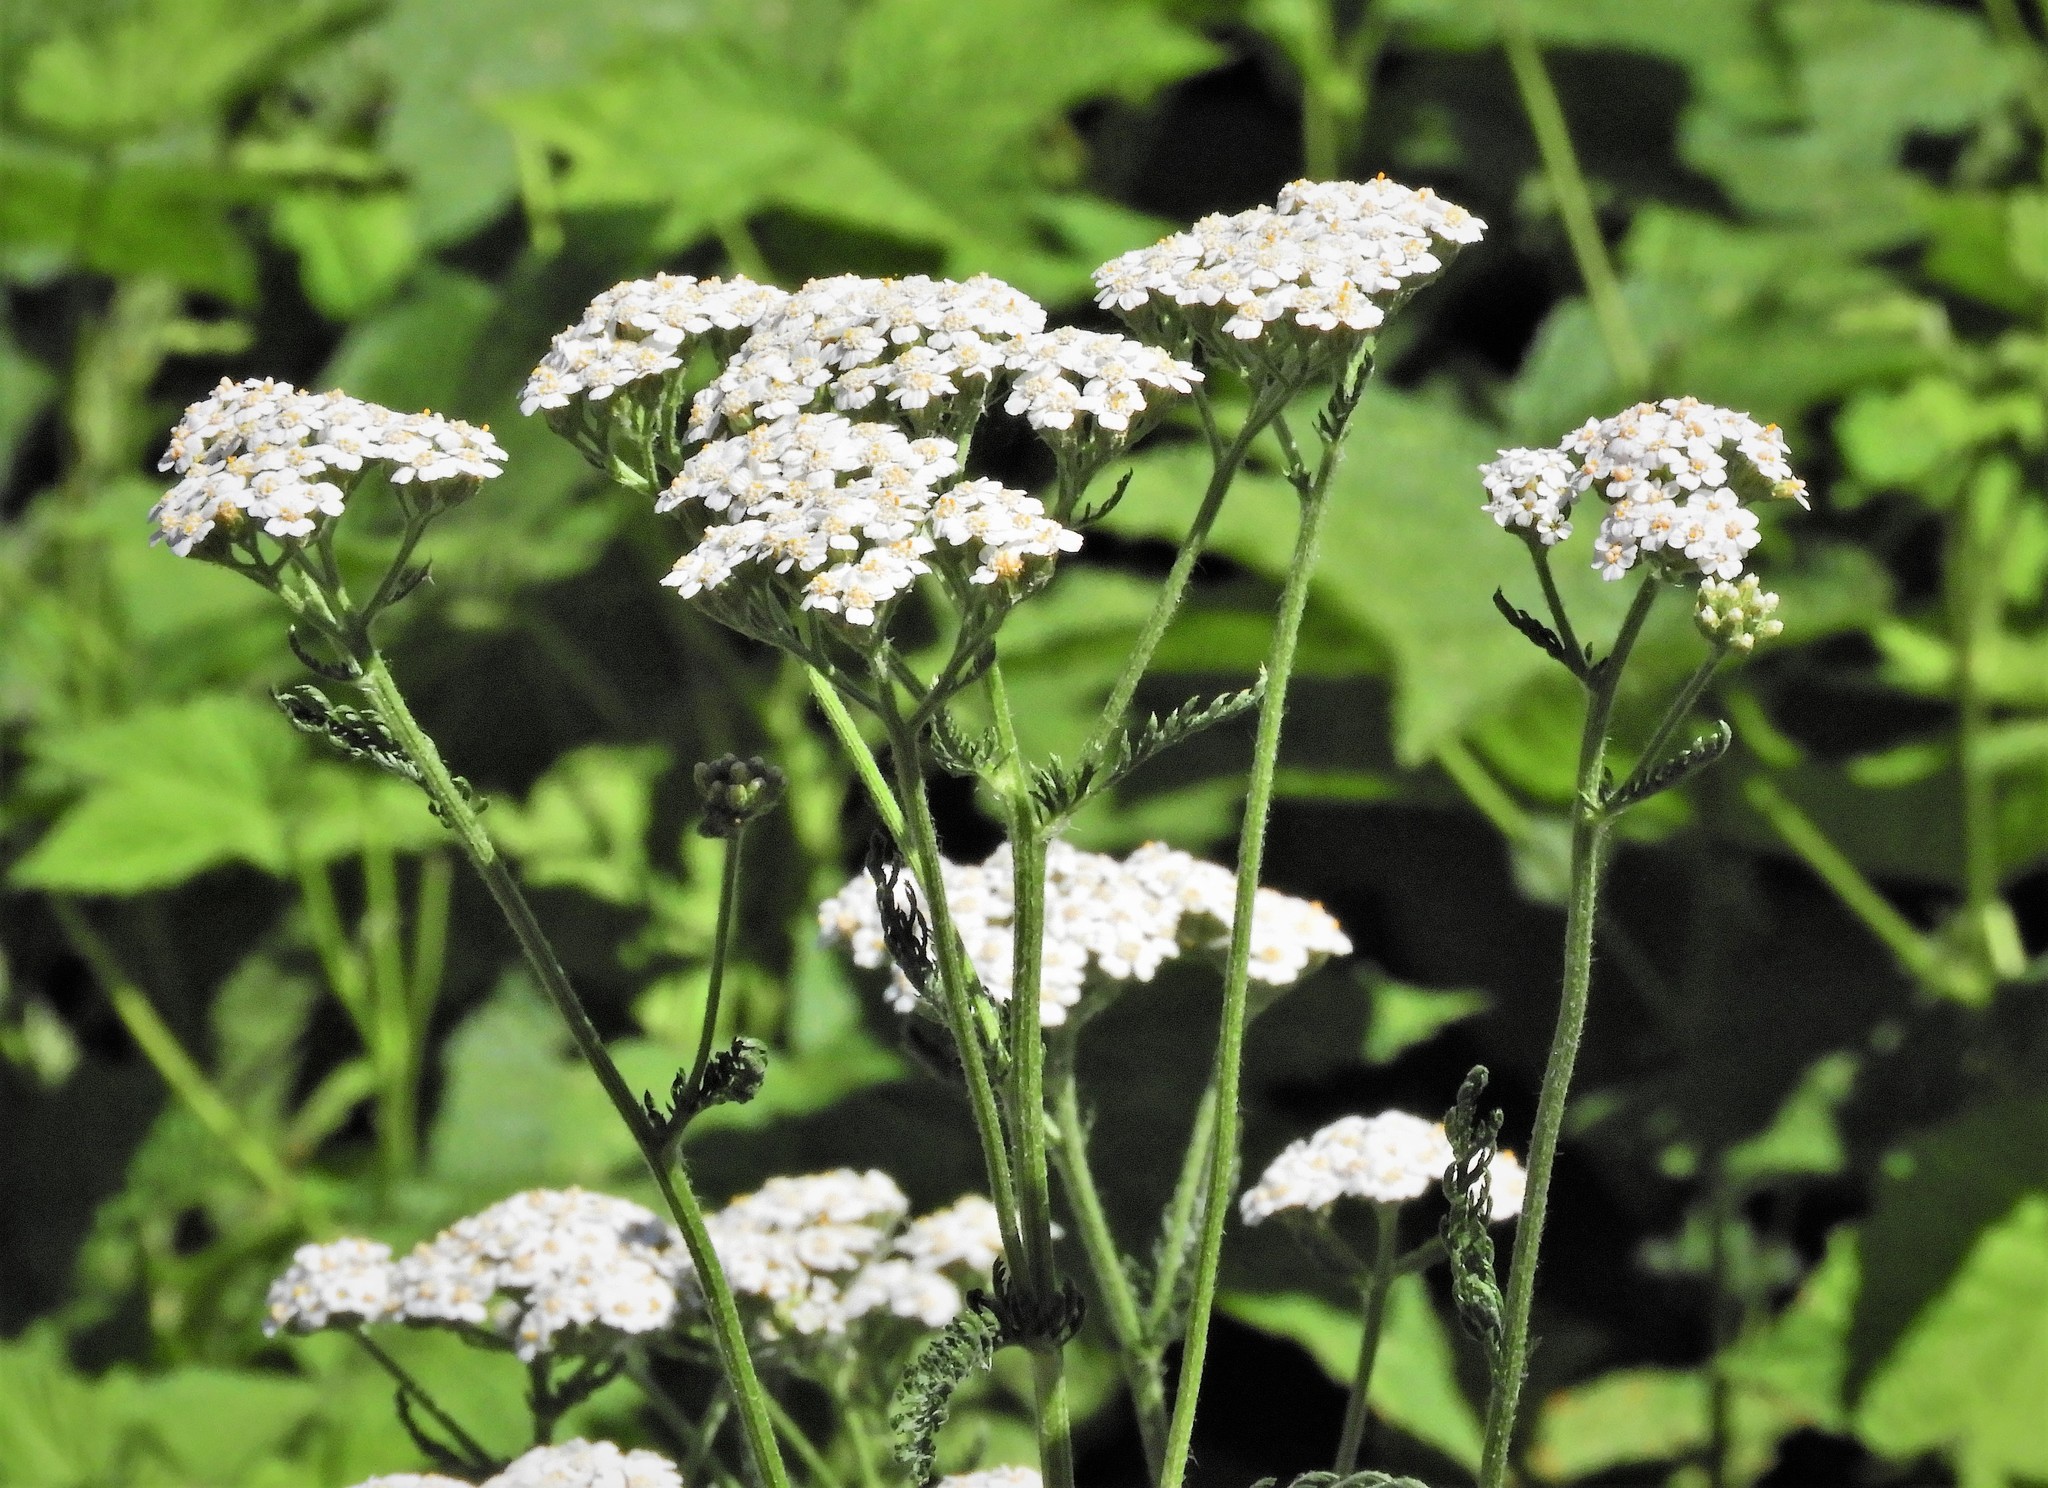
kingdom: Plantae
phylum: Tracheophyta
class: Magnoliopsida
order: Asterales
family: Asteraceae
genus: Achillea
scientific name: Achillea millefolium
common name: Yarrow
